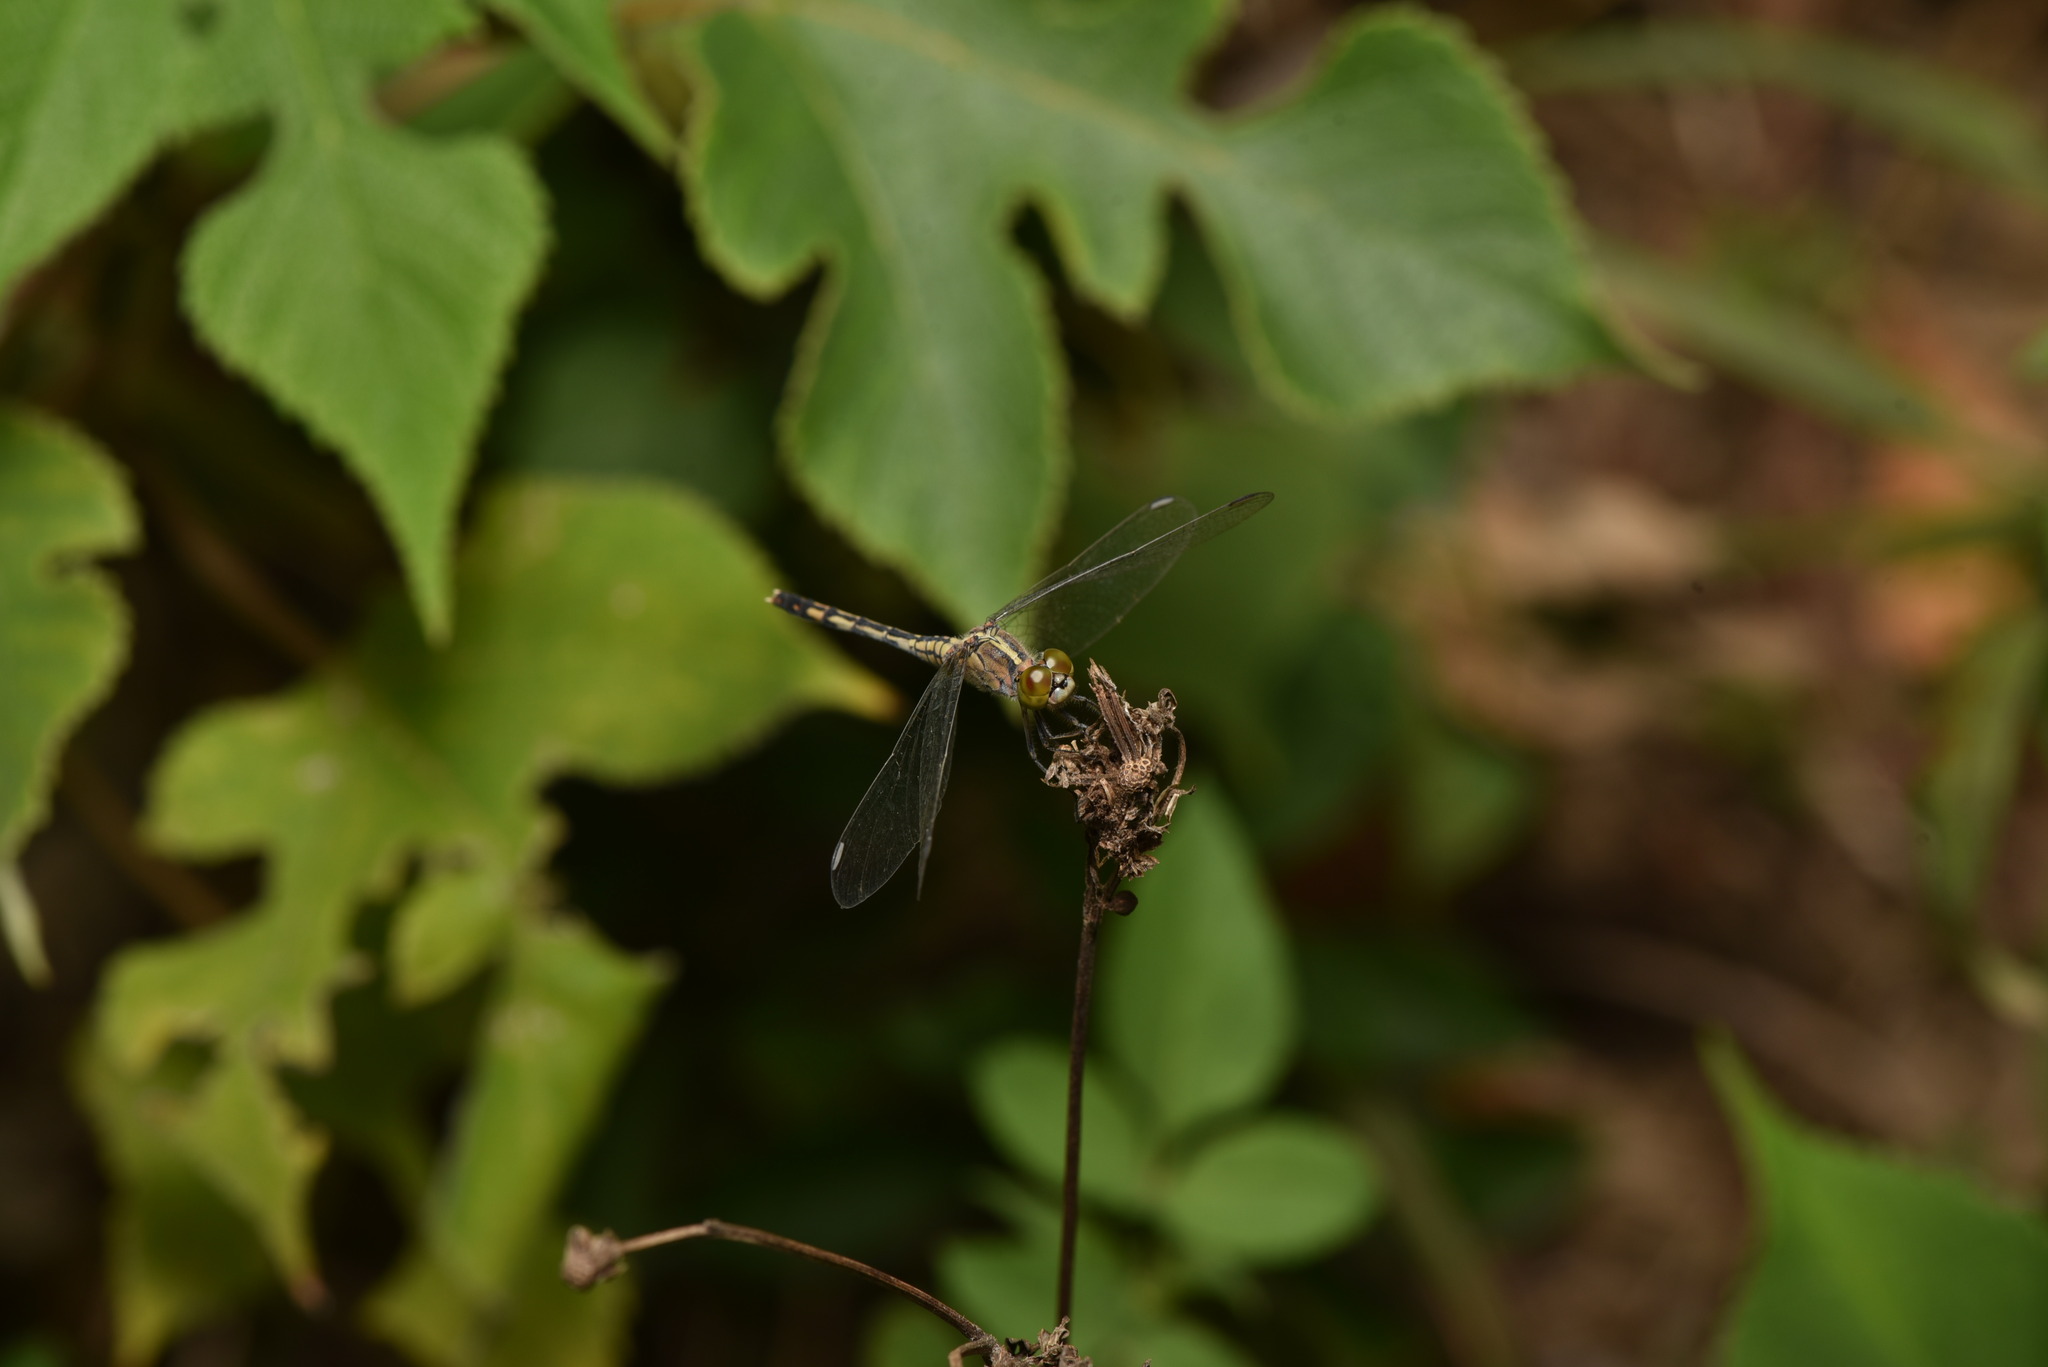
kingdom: Animalia
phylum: Arthropoda
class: Insecta
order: Odonata
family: Libellulidae
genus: Diplacodes
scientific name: Diplacodes trivialis
